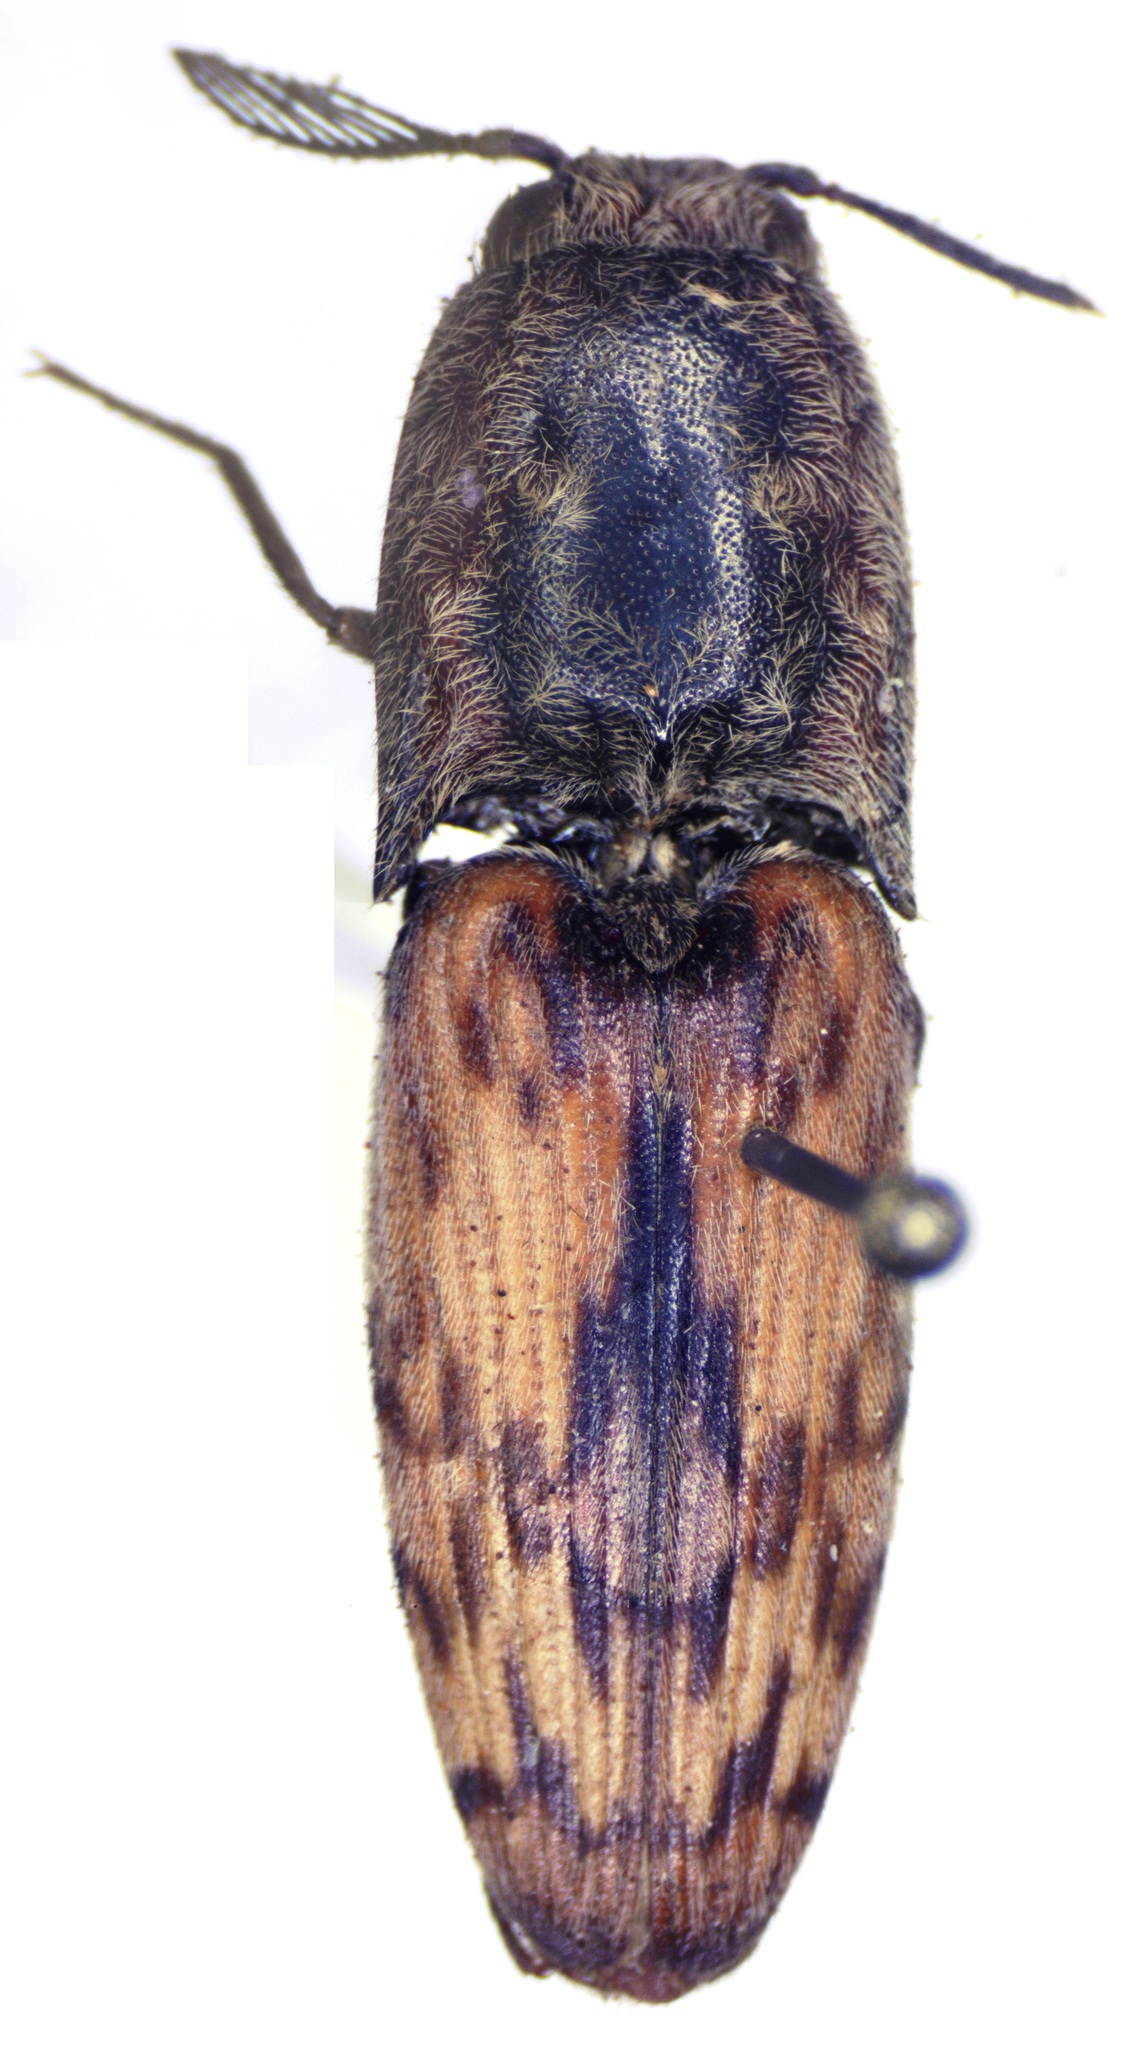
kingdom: Animalia
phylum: Arthropoda
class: Insecta
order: Coleoptera
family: Elateridae
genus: Pherhimius
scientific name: Pherhimius fascicularis
